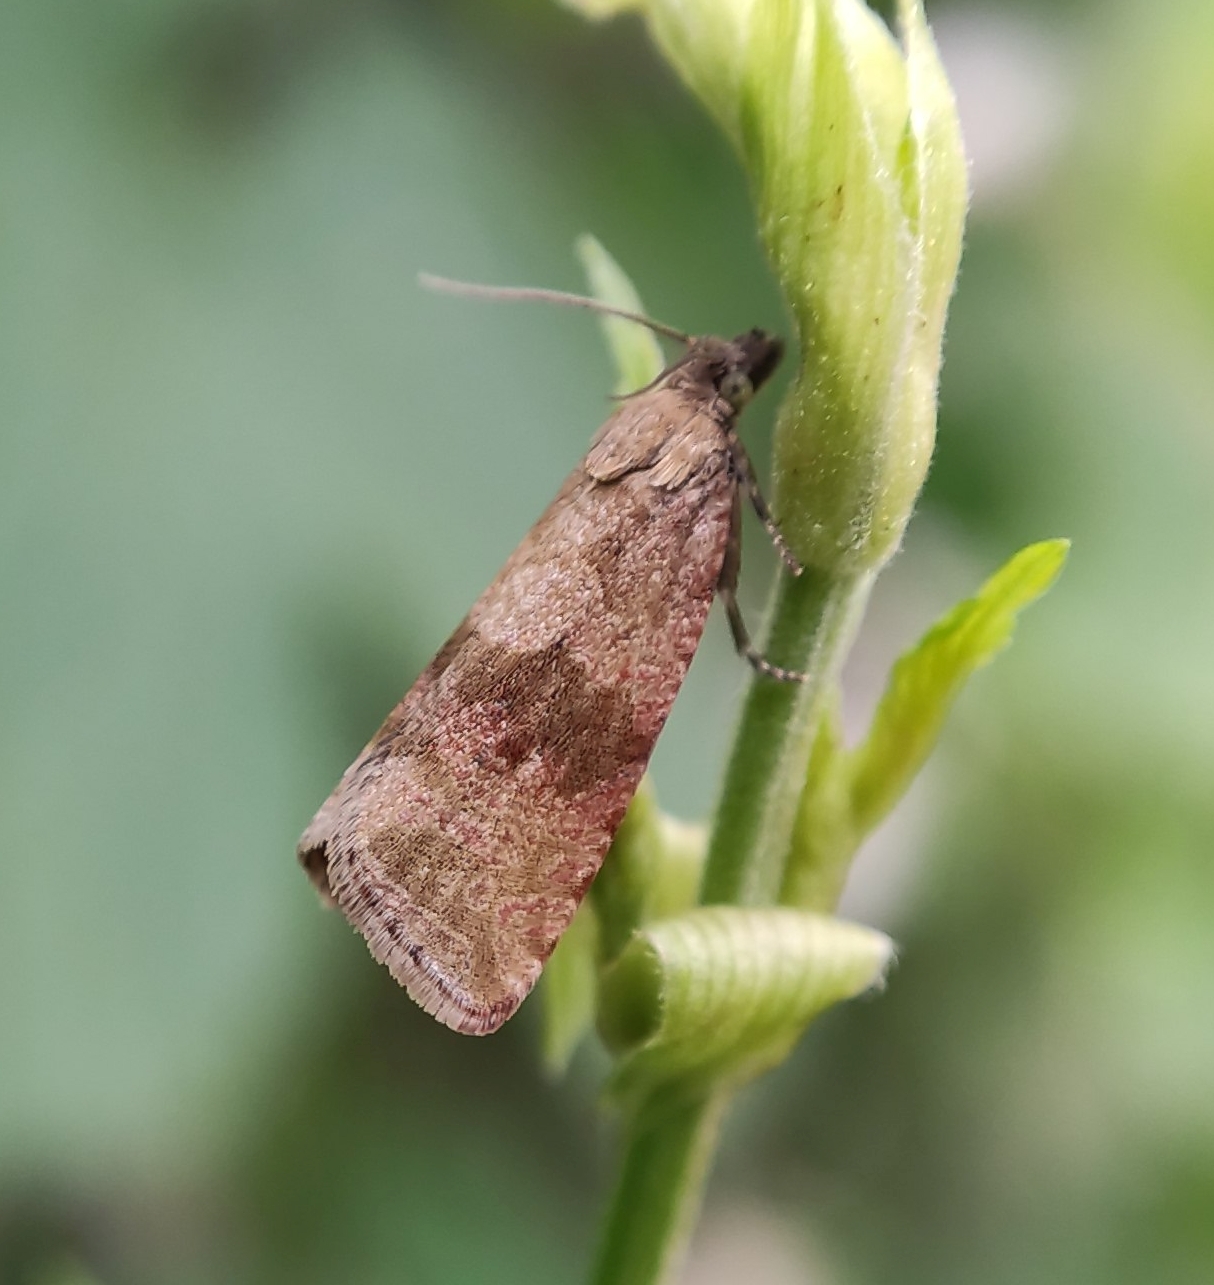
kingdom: Animalia
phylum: Arthropoda
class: Insecta
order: Lepidoptera
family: Tortricidae
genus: Celypha
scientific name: Celypha striana
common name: Barred marble
